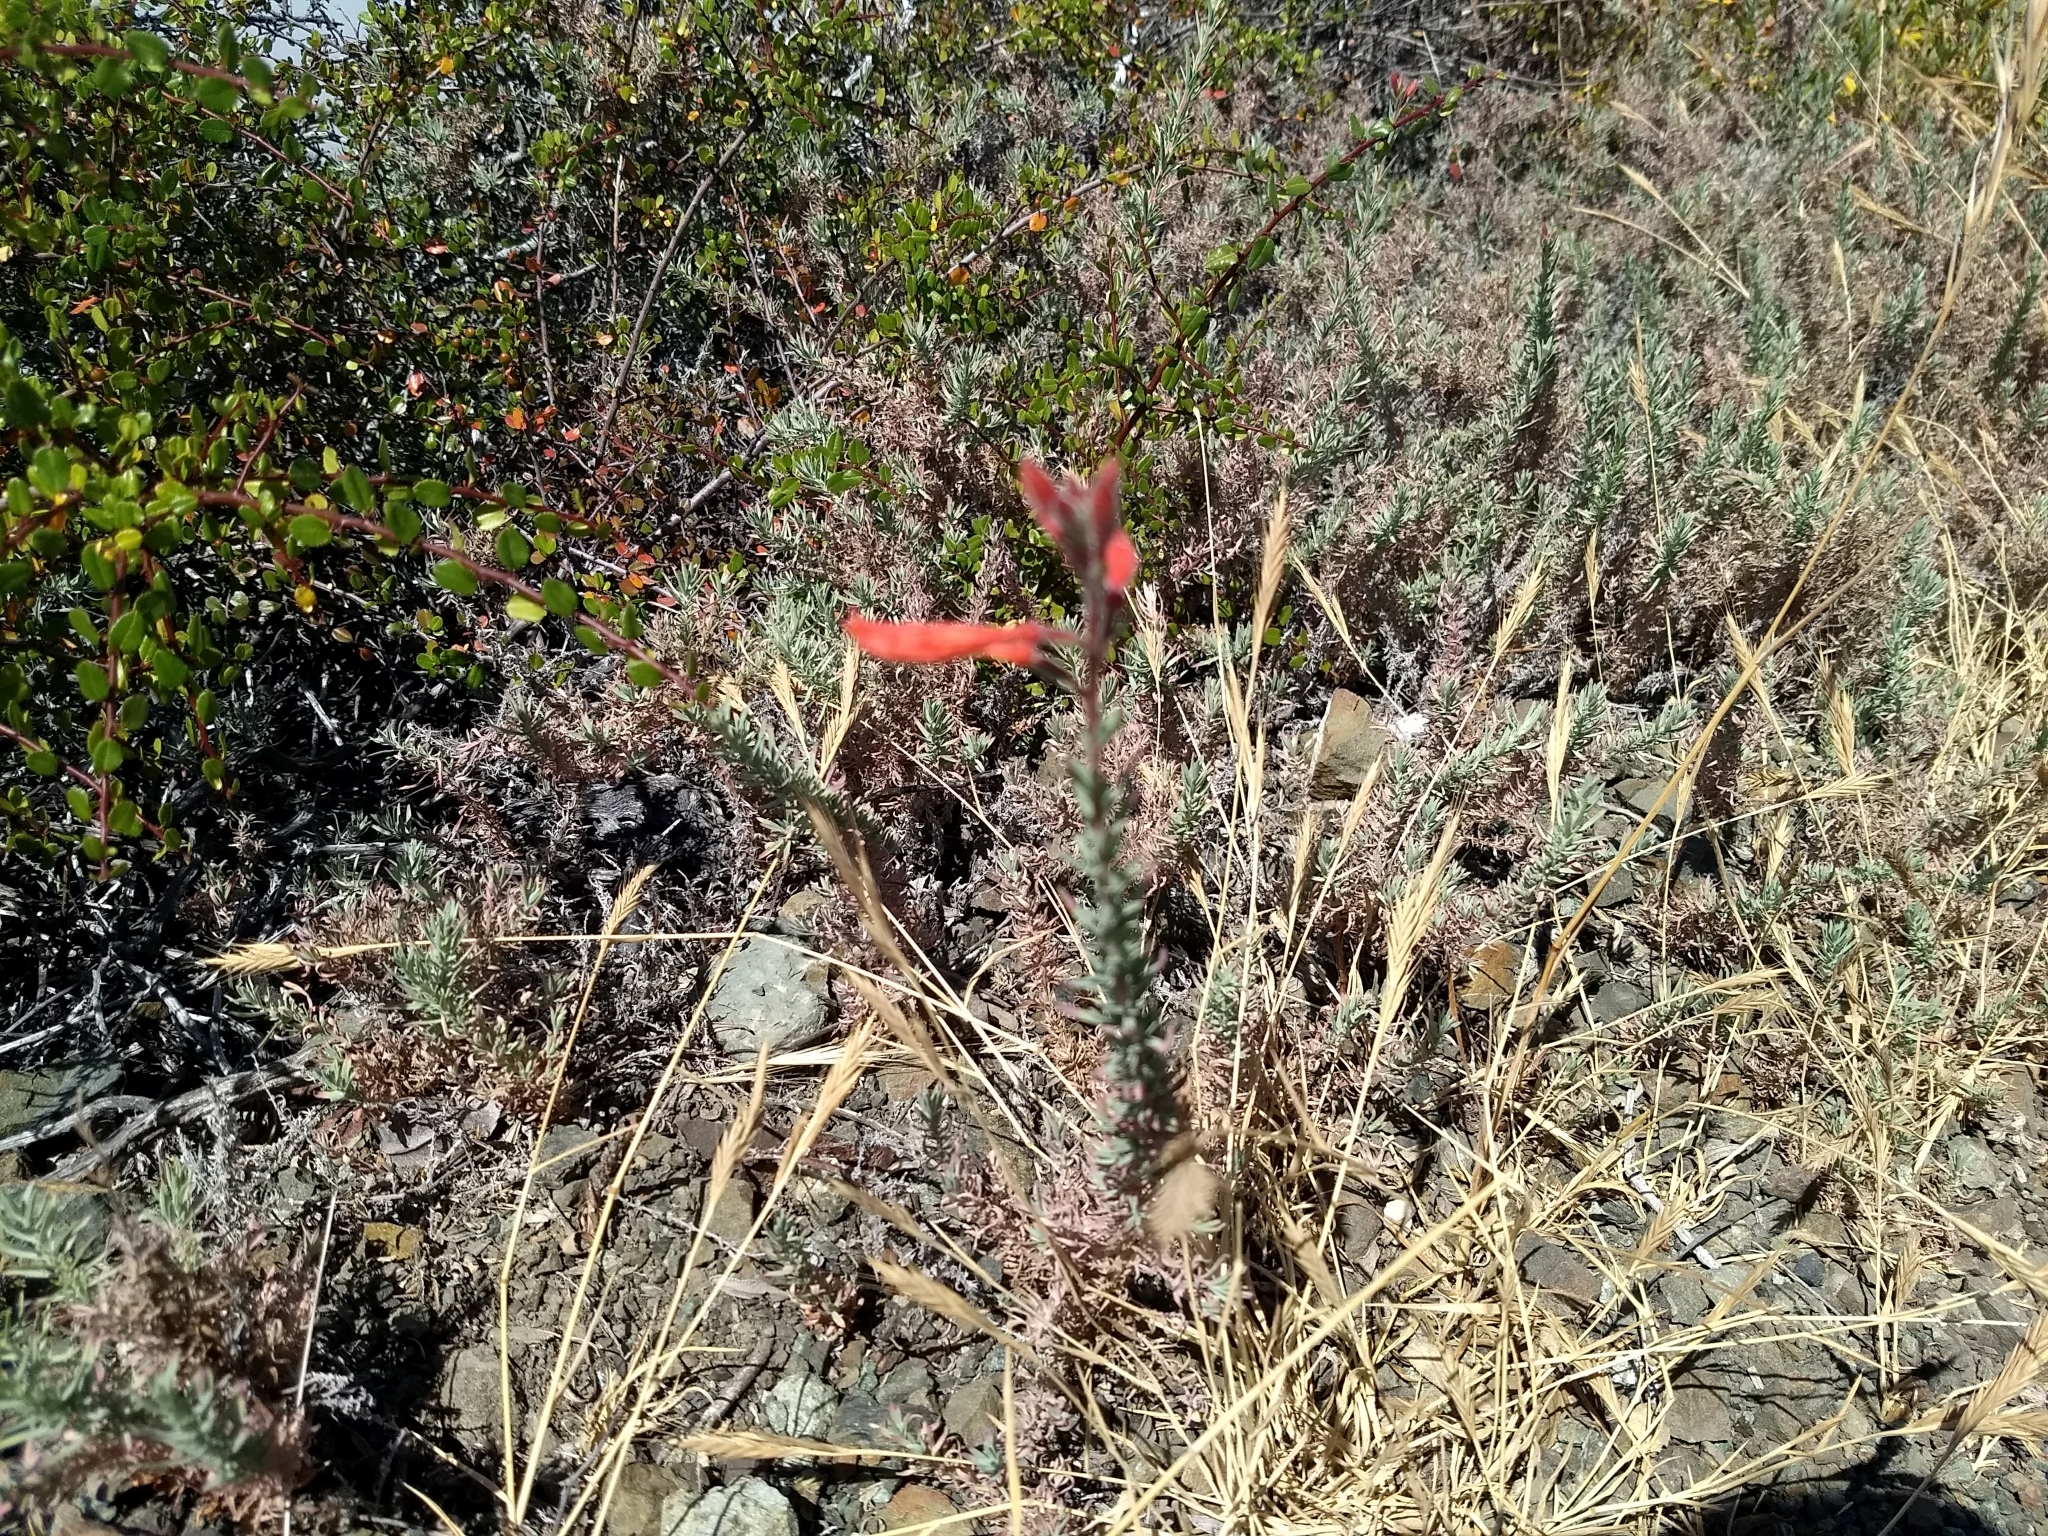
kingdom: Plantae
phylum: Tracheophyta
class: Magnoliopsida
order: Myrtales
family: Onagraceae
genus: Epilobium
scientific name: Epilobium canum
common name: California-fuchsia
